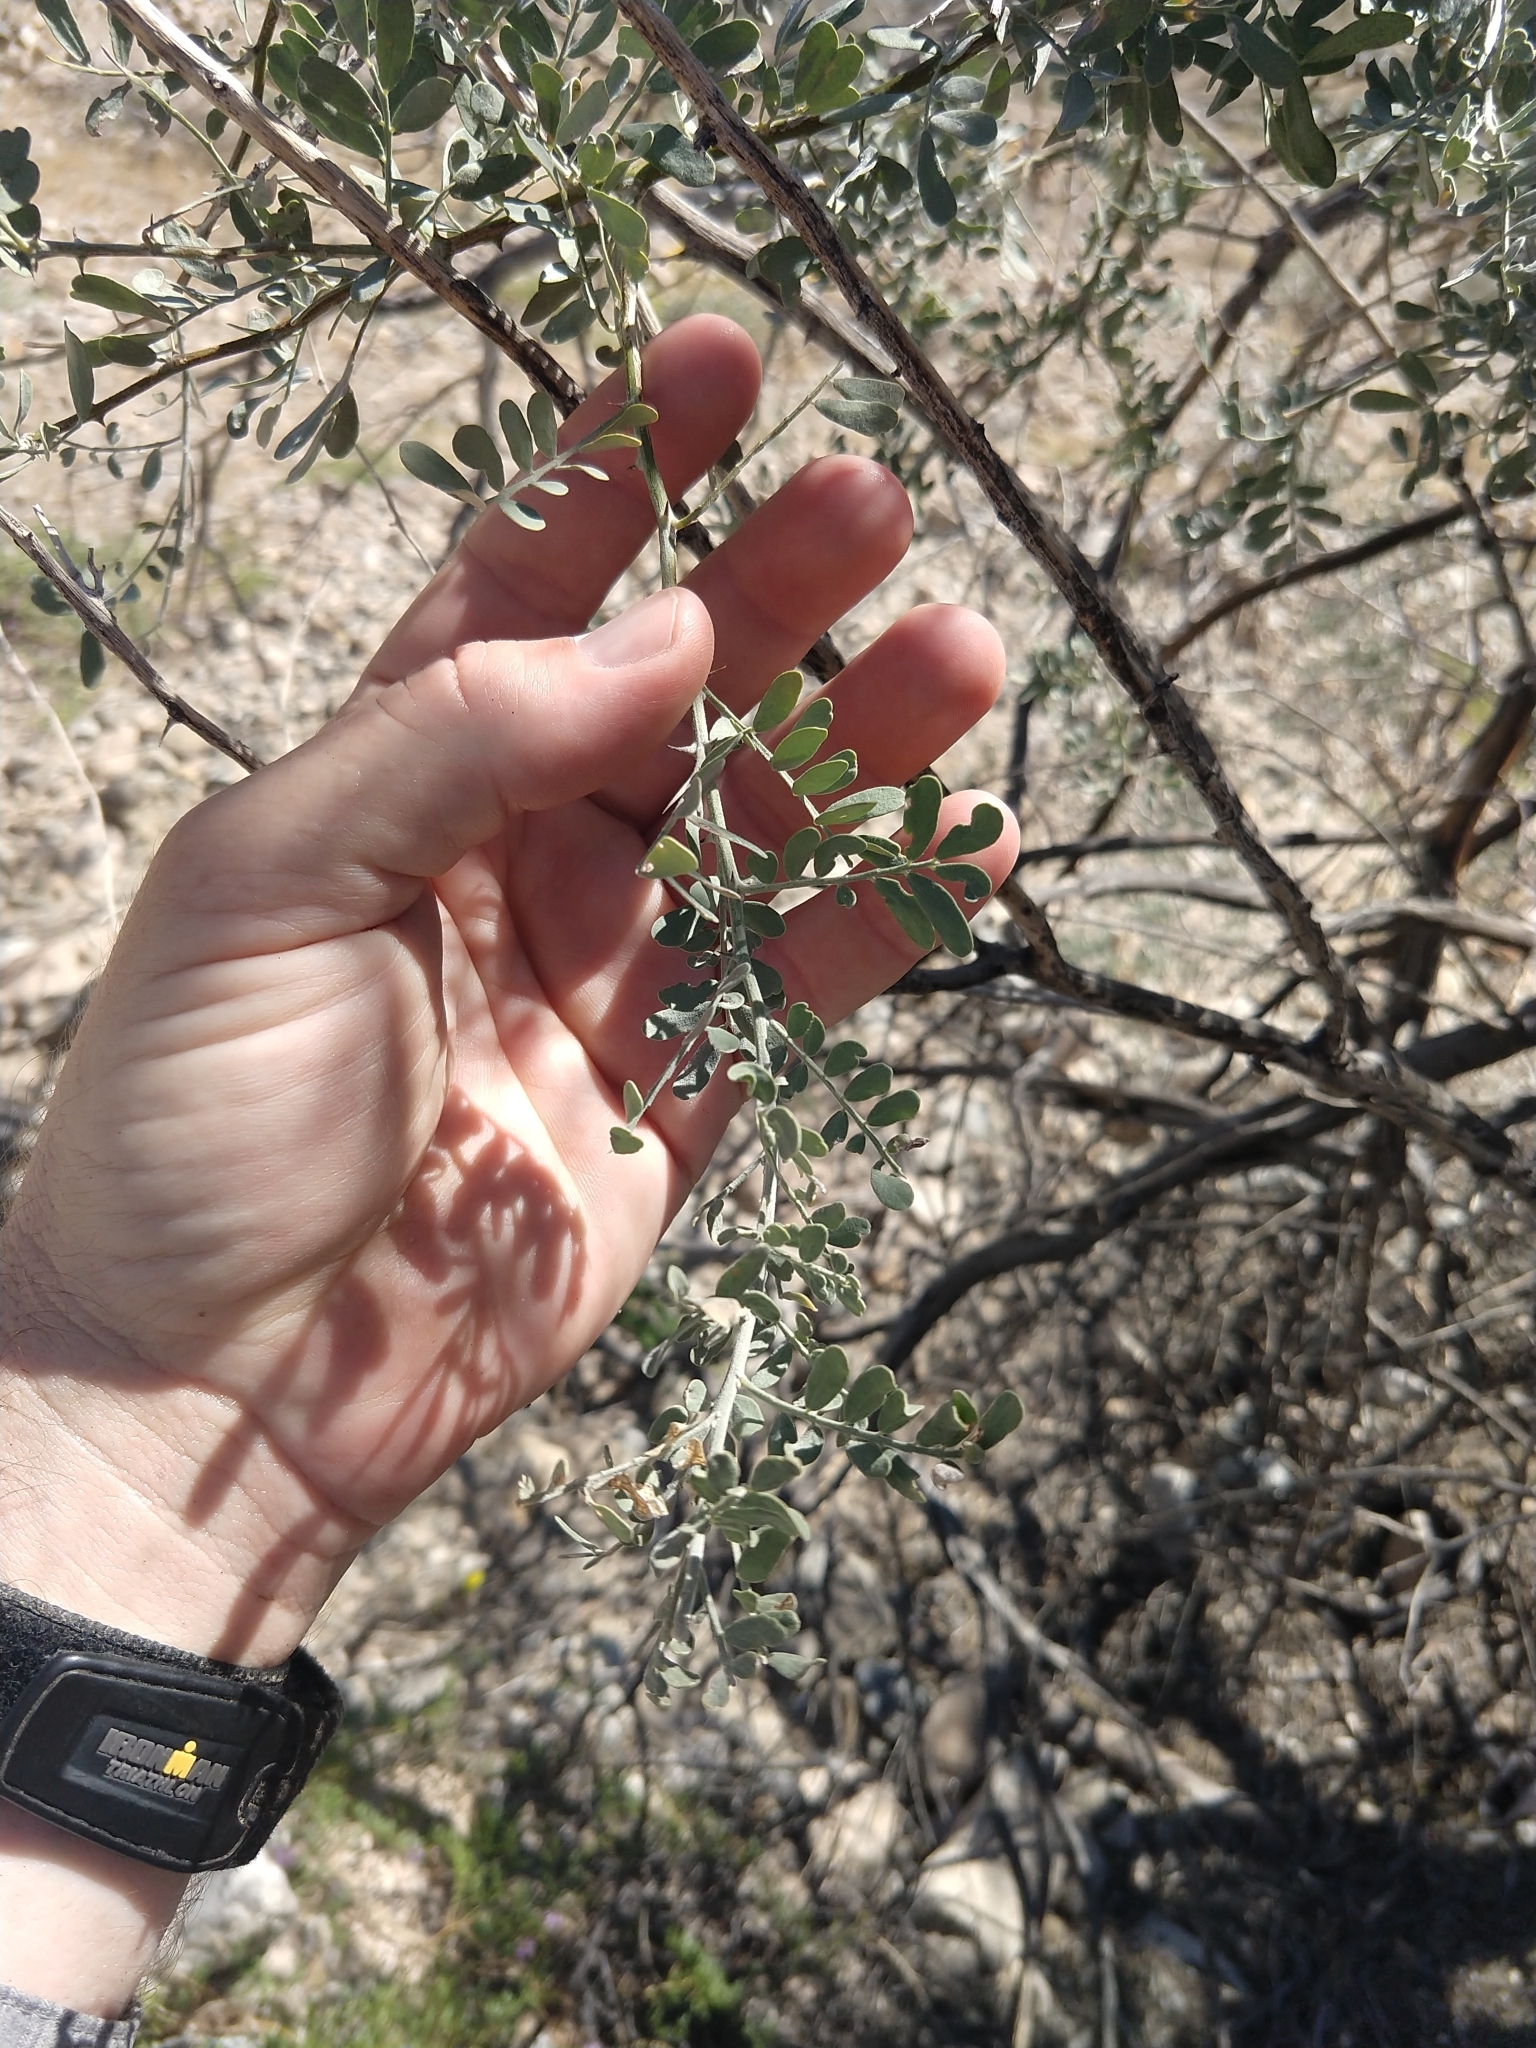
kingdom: Plantae
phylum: Tracheophyta
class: Magnoliopsida
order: Fabales
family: Fabaceae
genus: Olneya
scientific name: Olneya tesota
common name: Desert ironwood
